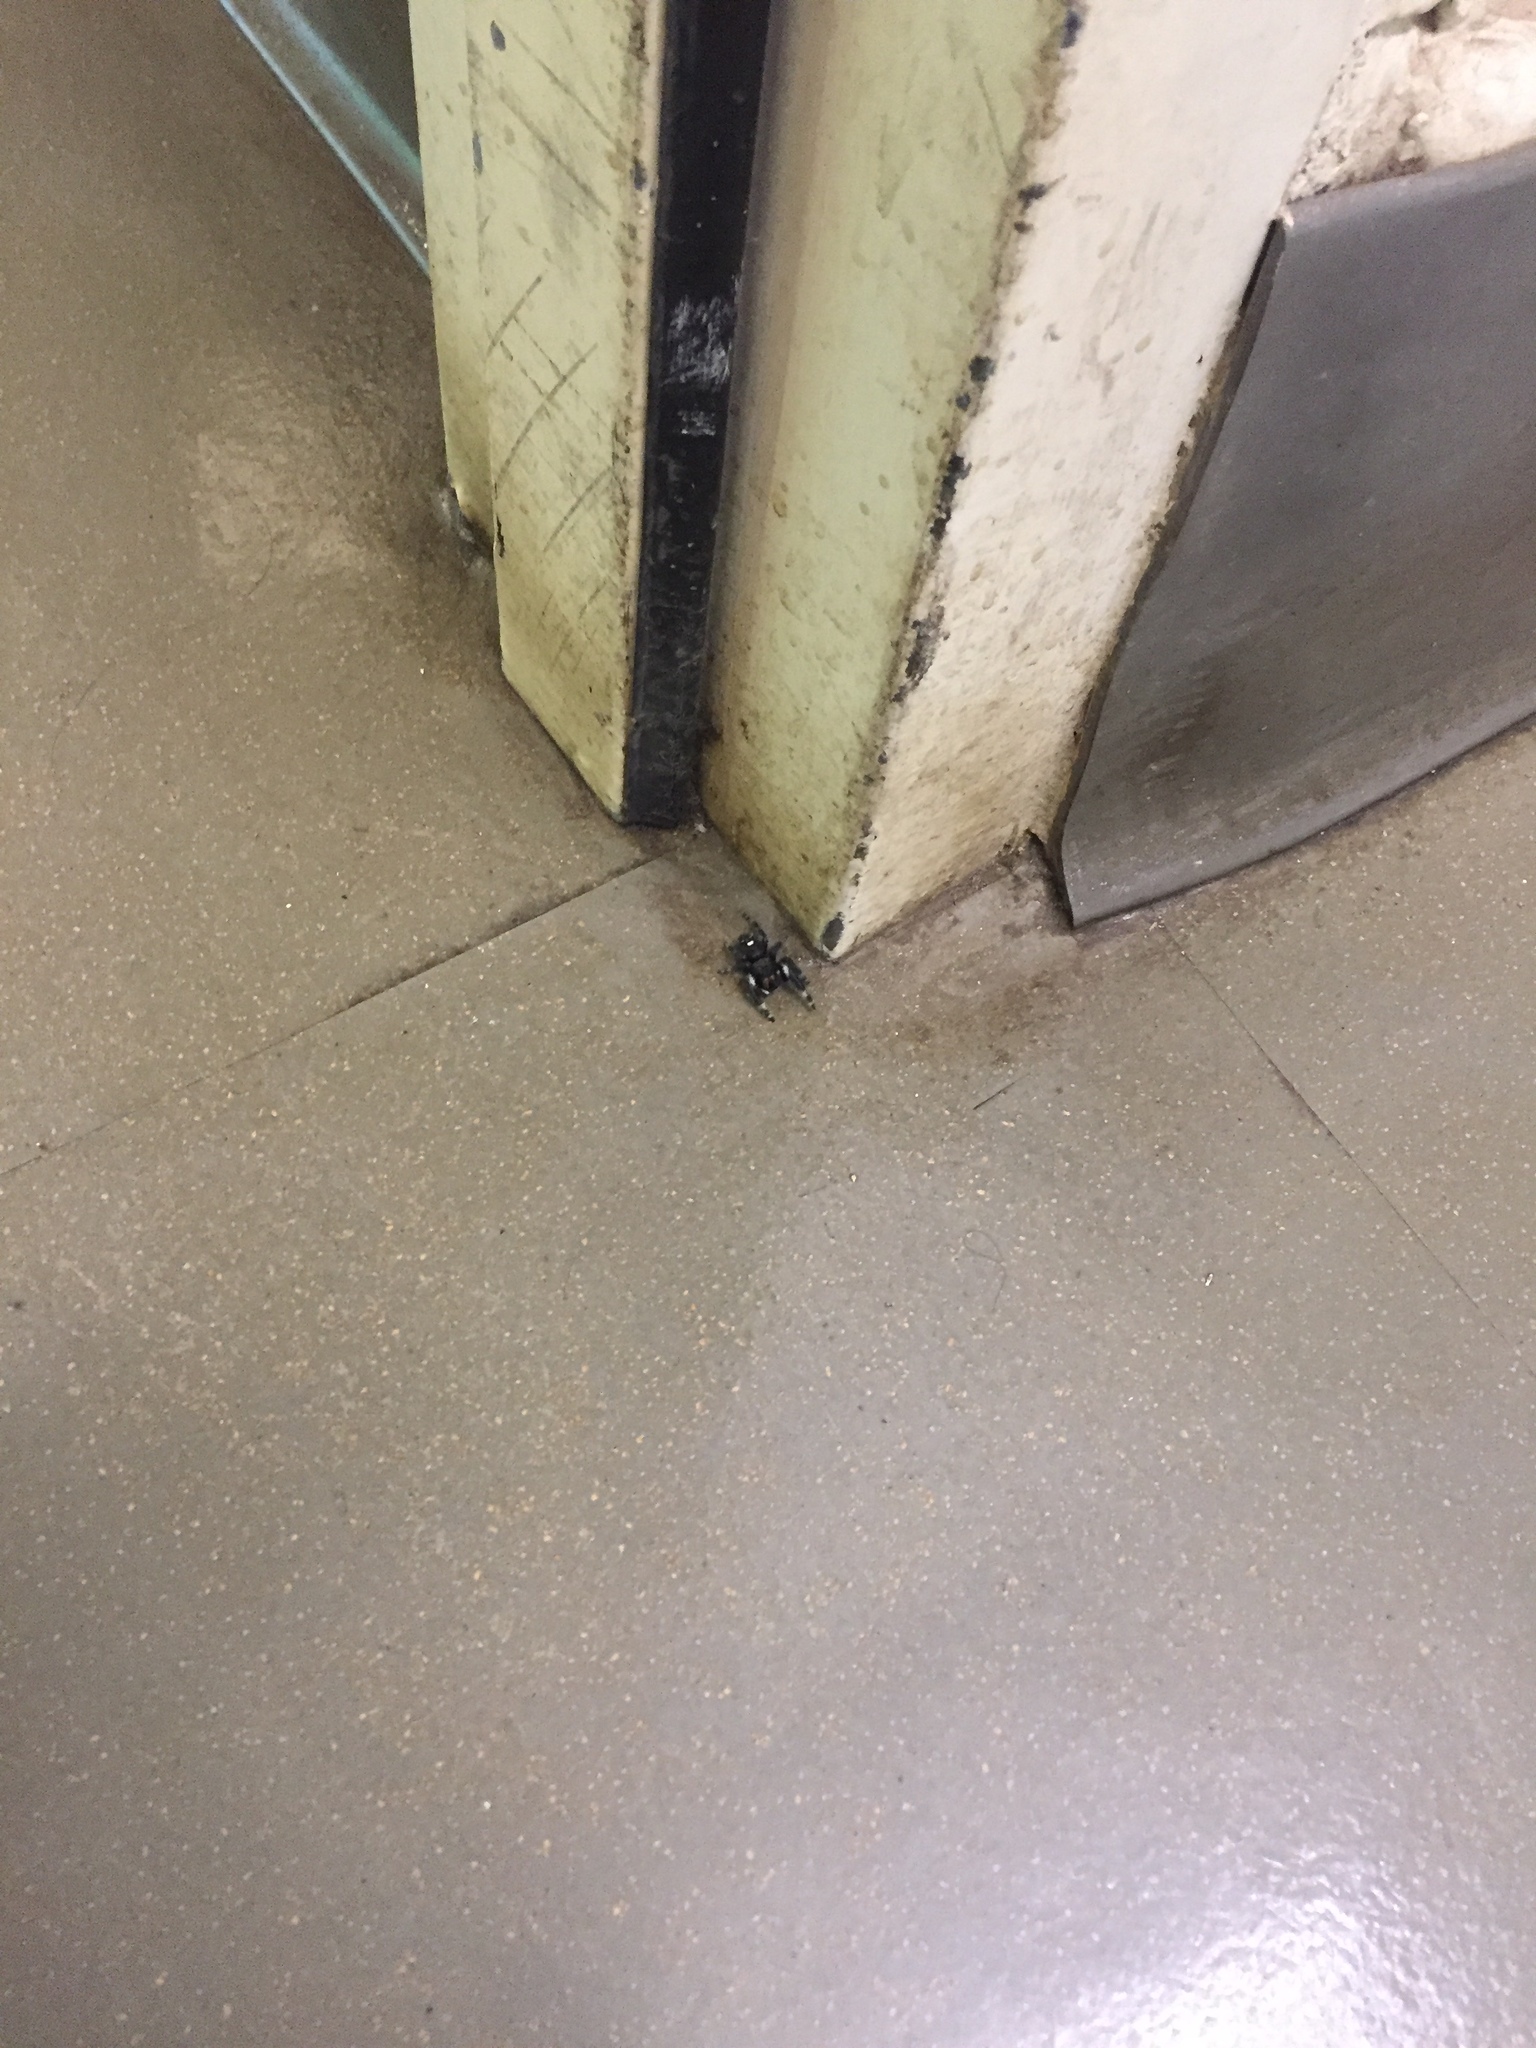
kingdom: Animalia
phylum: Arthropoda
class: Arachnida
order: Araneae
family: Salticidae
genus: Phidippus
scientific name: Phidippus audax
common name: Bold jumper
